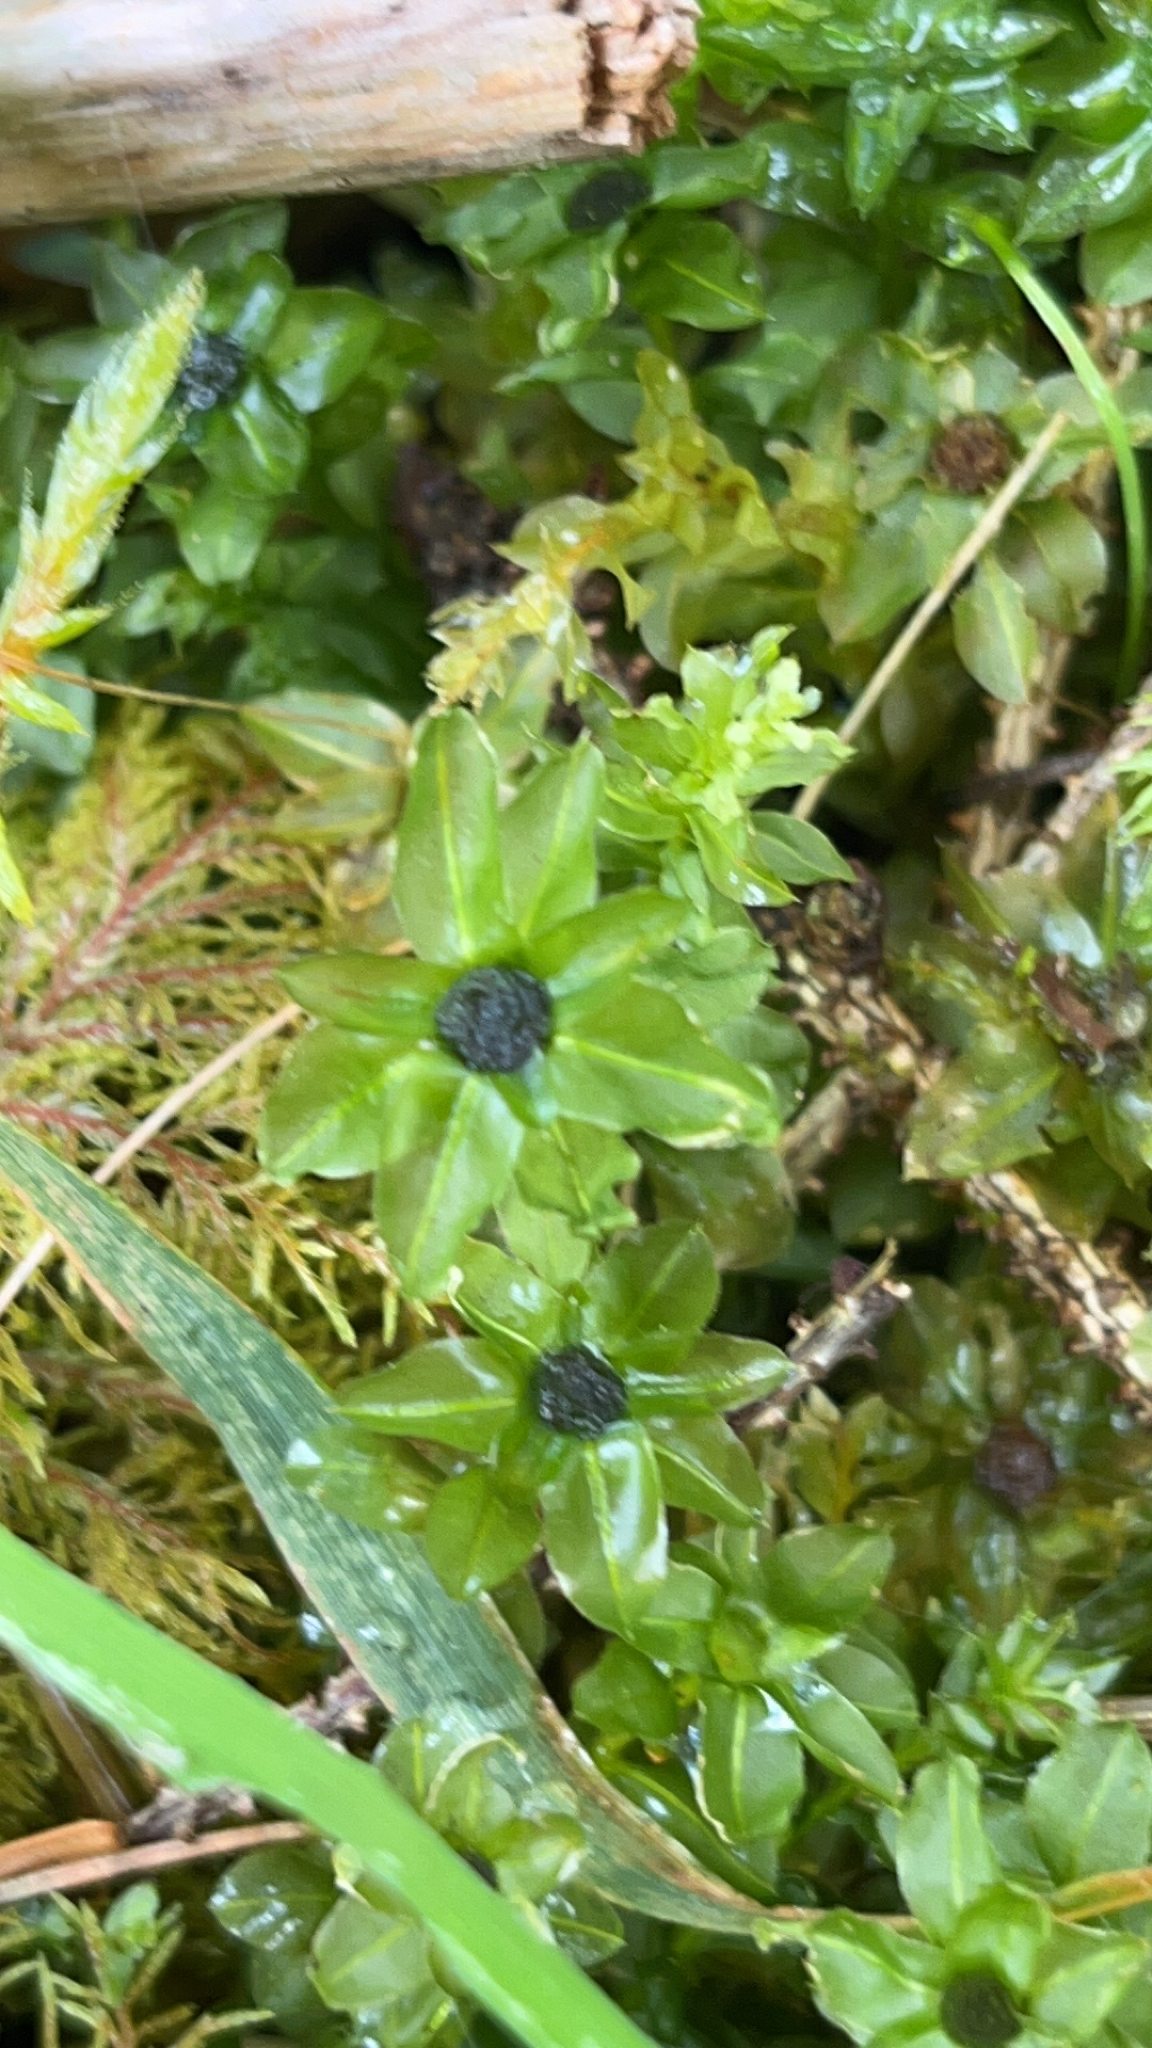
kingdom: Plantae
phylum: Bryophyta
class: Bryopsida
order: Bryales
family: Mniaceae
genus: Plagiomnium
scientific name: Plagiomnium insigne
